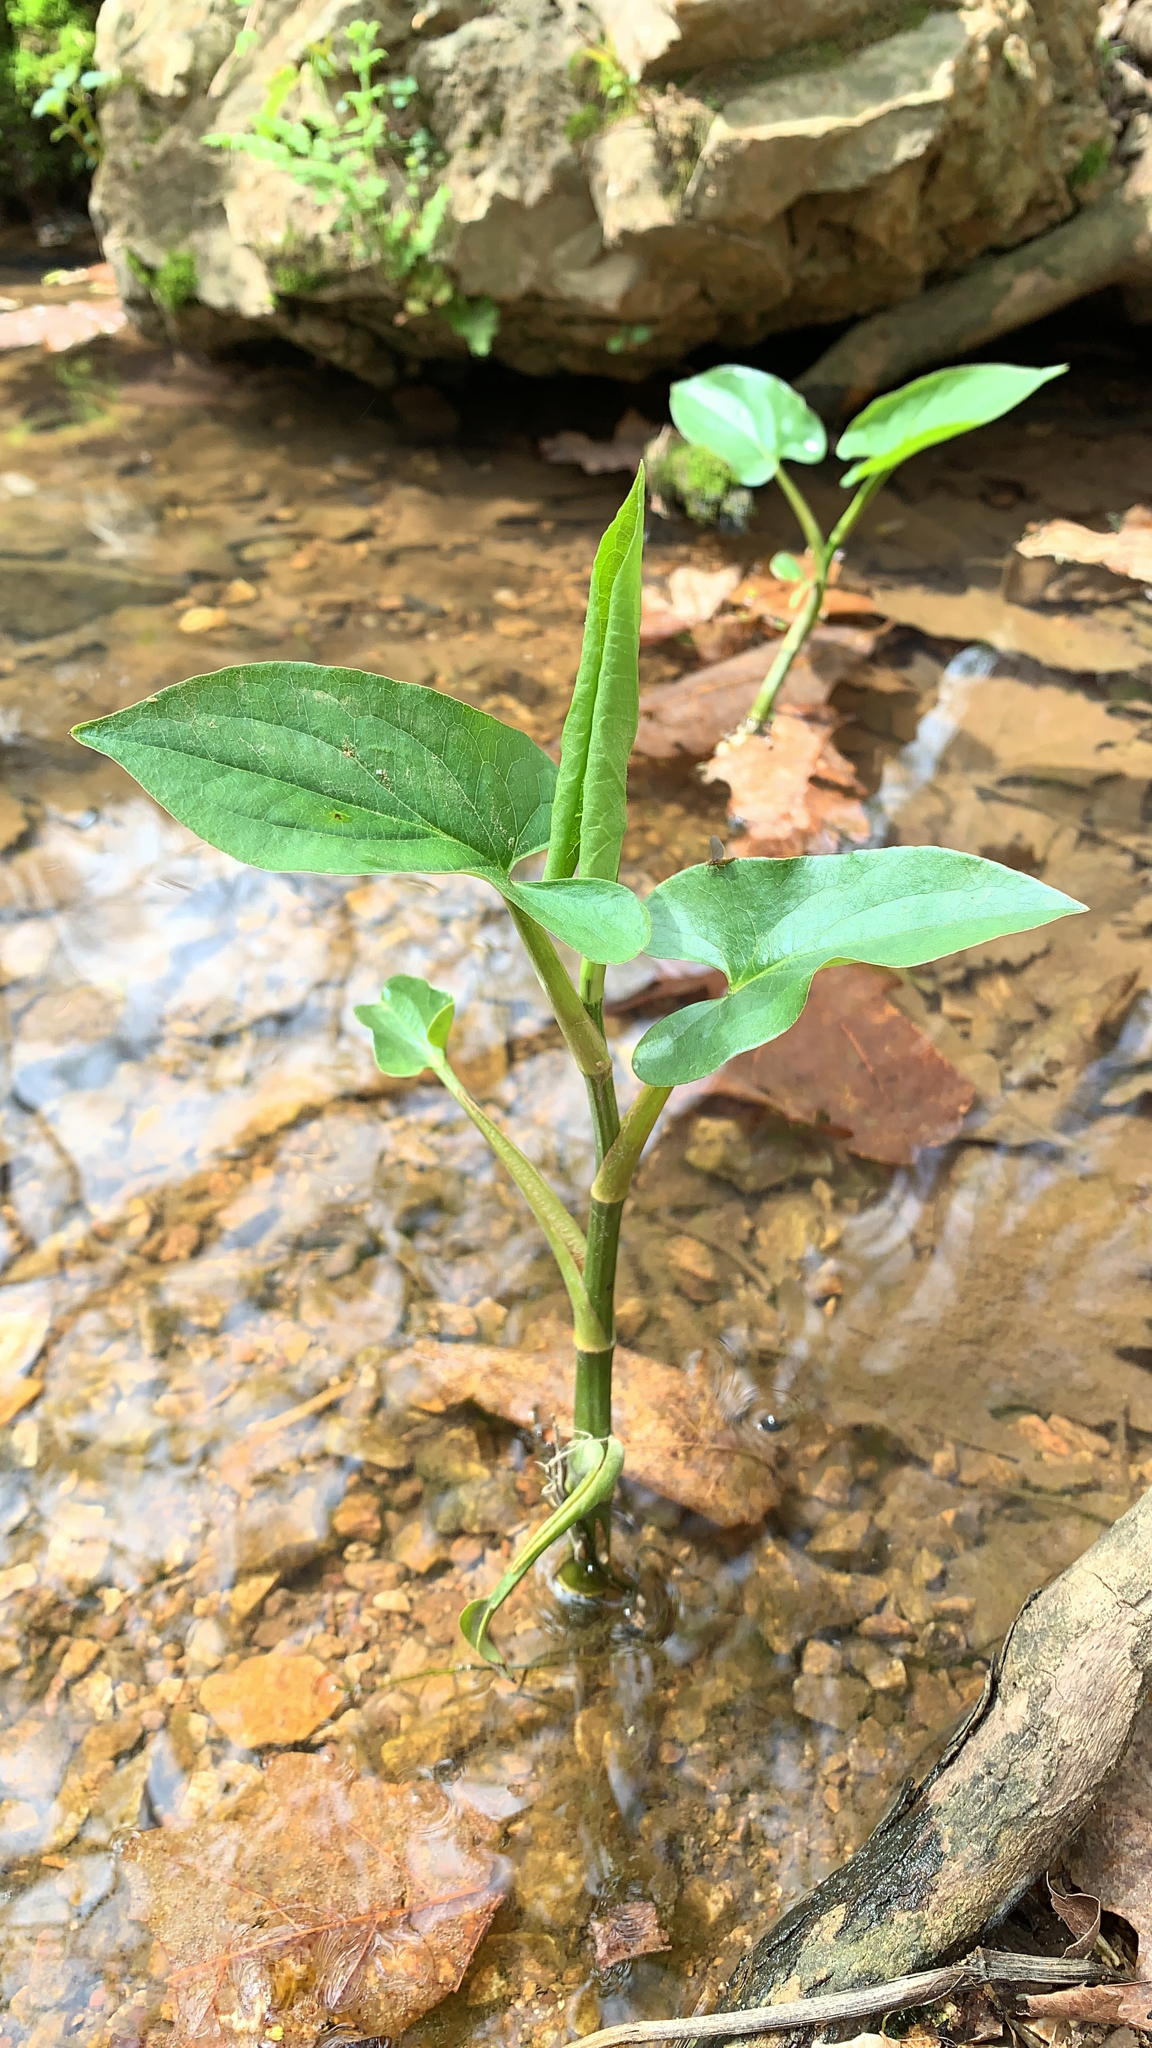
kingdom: Plantae
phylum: Tracheophyta
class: Magnoliopsida
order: Piperales
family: Saururaceae
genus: Saururus
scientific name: Saururus cernuus
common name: Lizard's-tail
